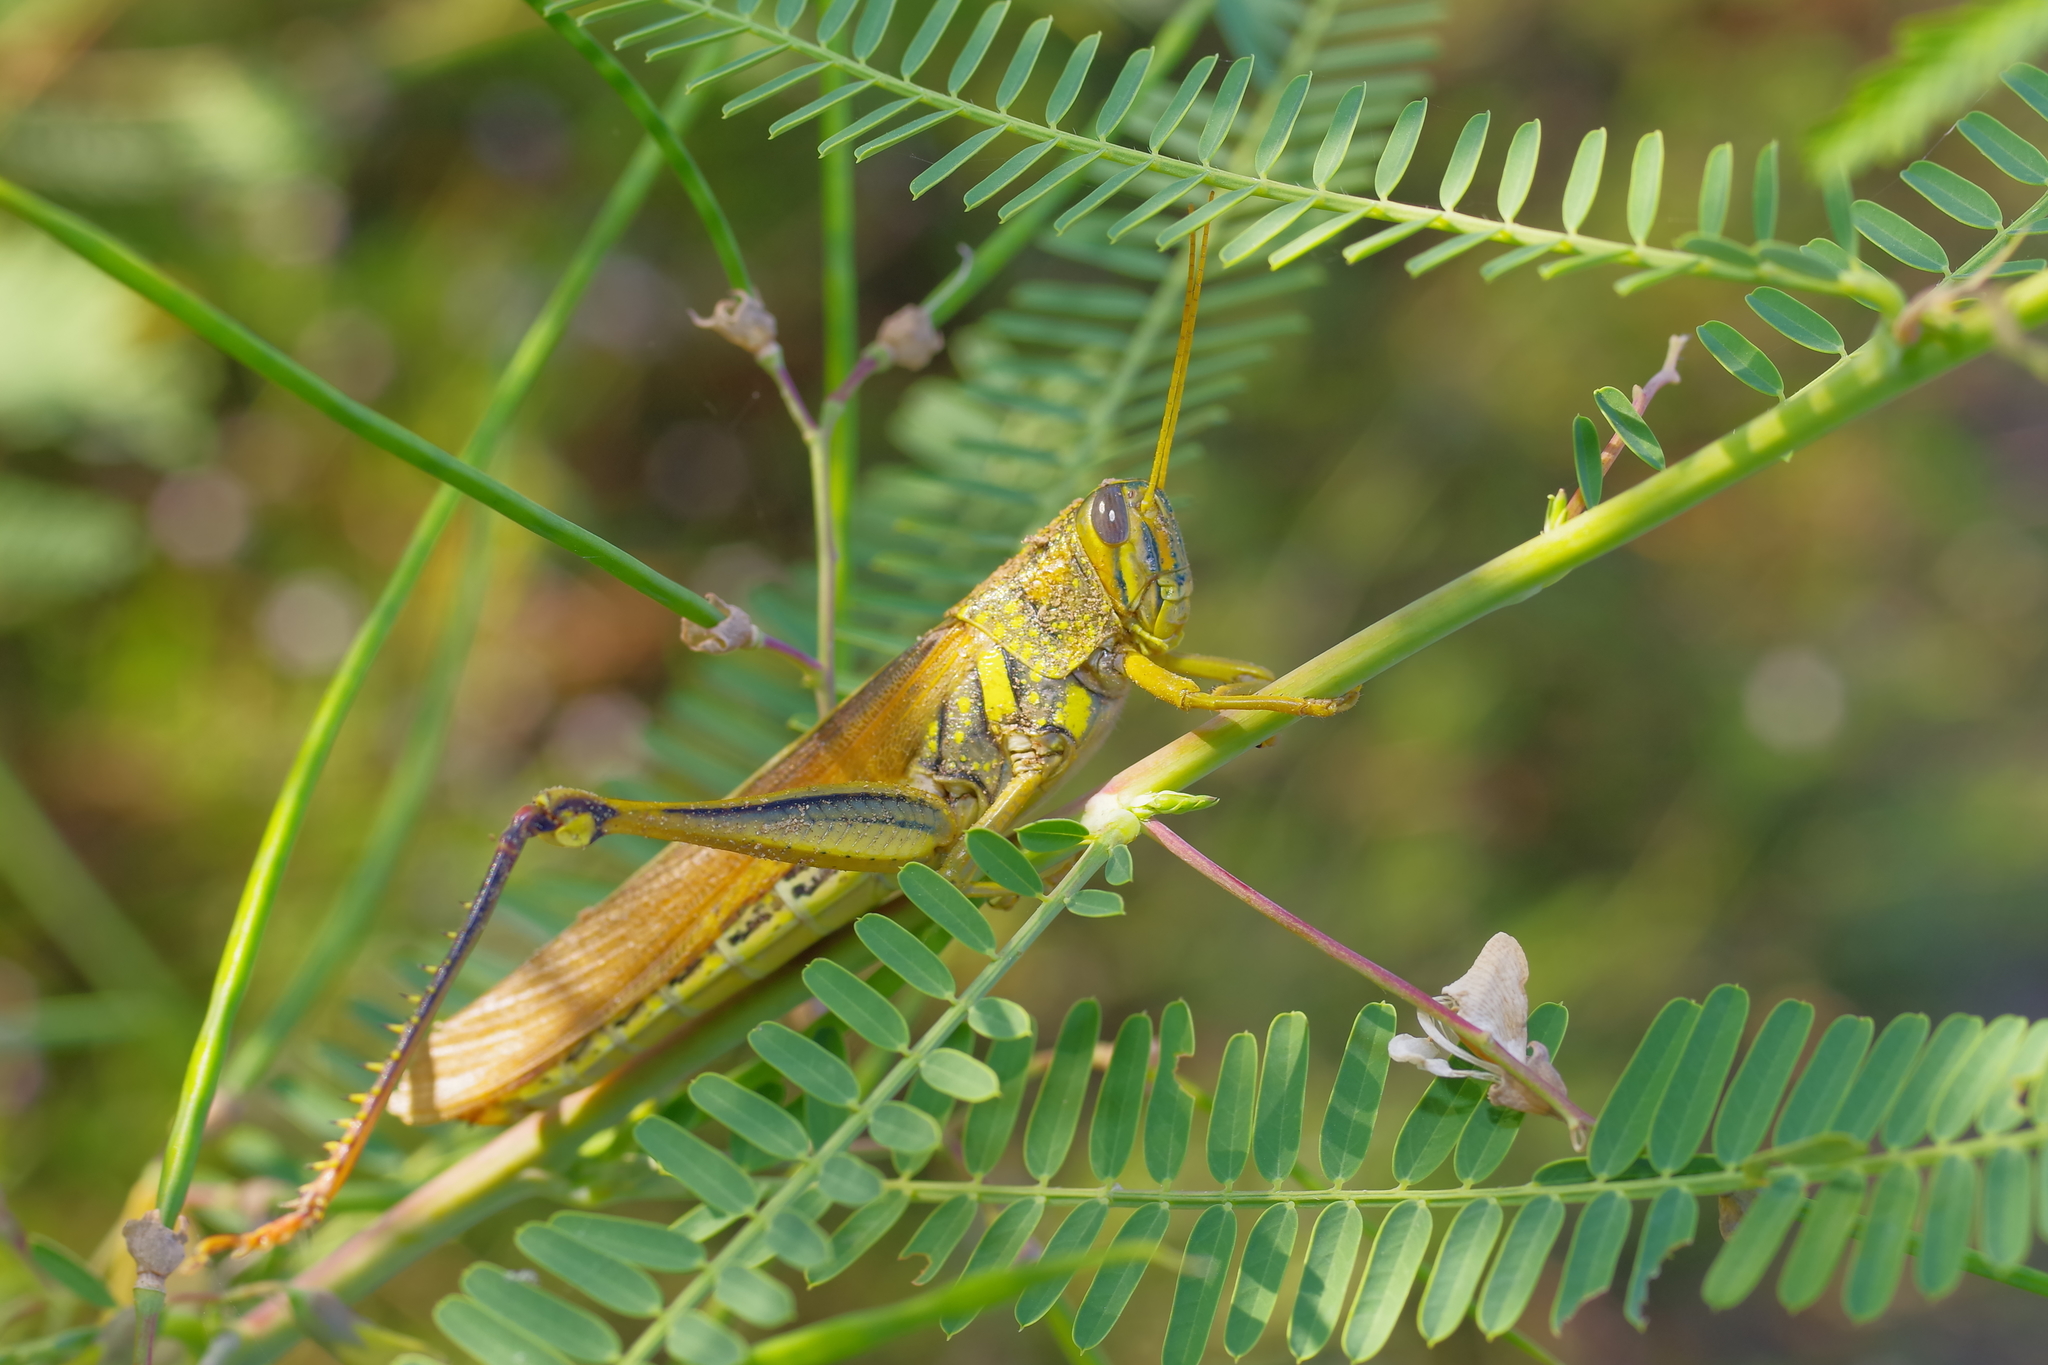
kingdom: Animalia
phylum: Arthropoda
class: Insecta
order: Orthoptera
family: Acrididae
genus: Schistocerca
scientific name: Schistocerca lineata
